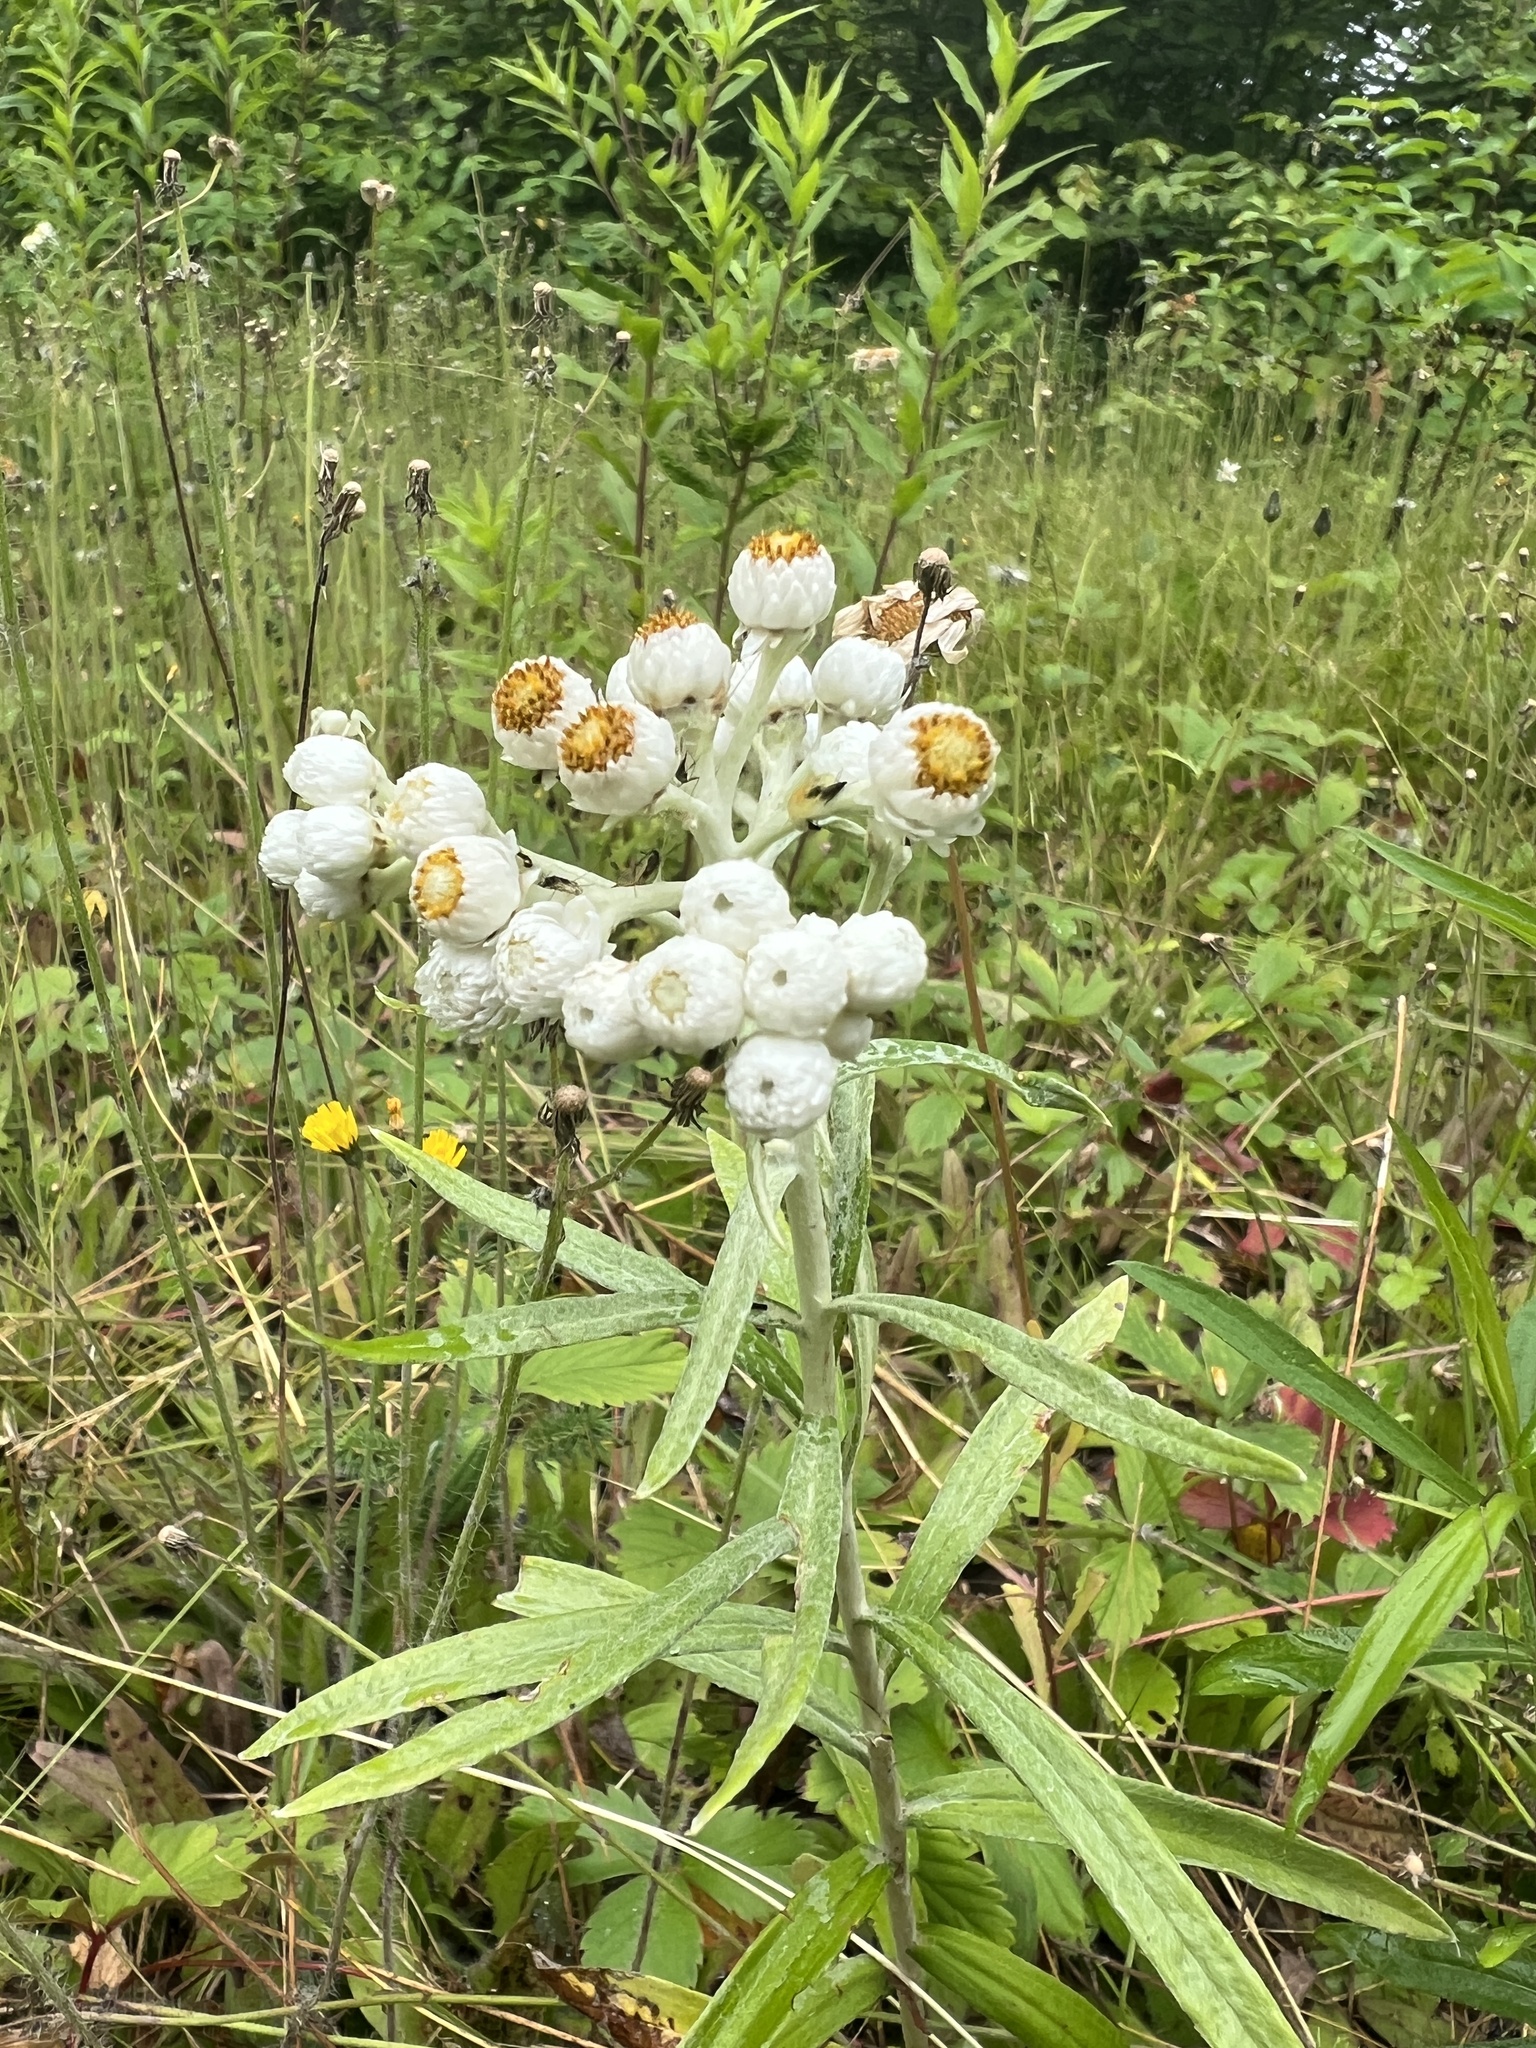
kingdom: Plantae
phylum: Tracheophyta
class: Magnoliopsida
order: Asterales
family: Asteraceae
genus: Anaphalis
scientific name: Anaphalis margaritacea
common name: Pearly everlasting
